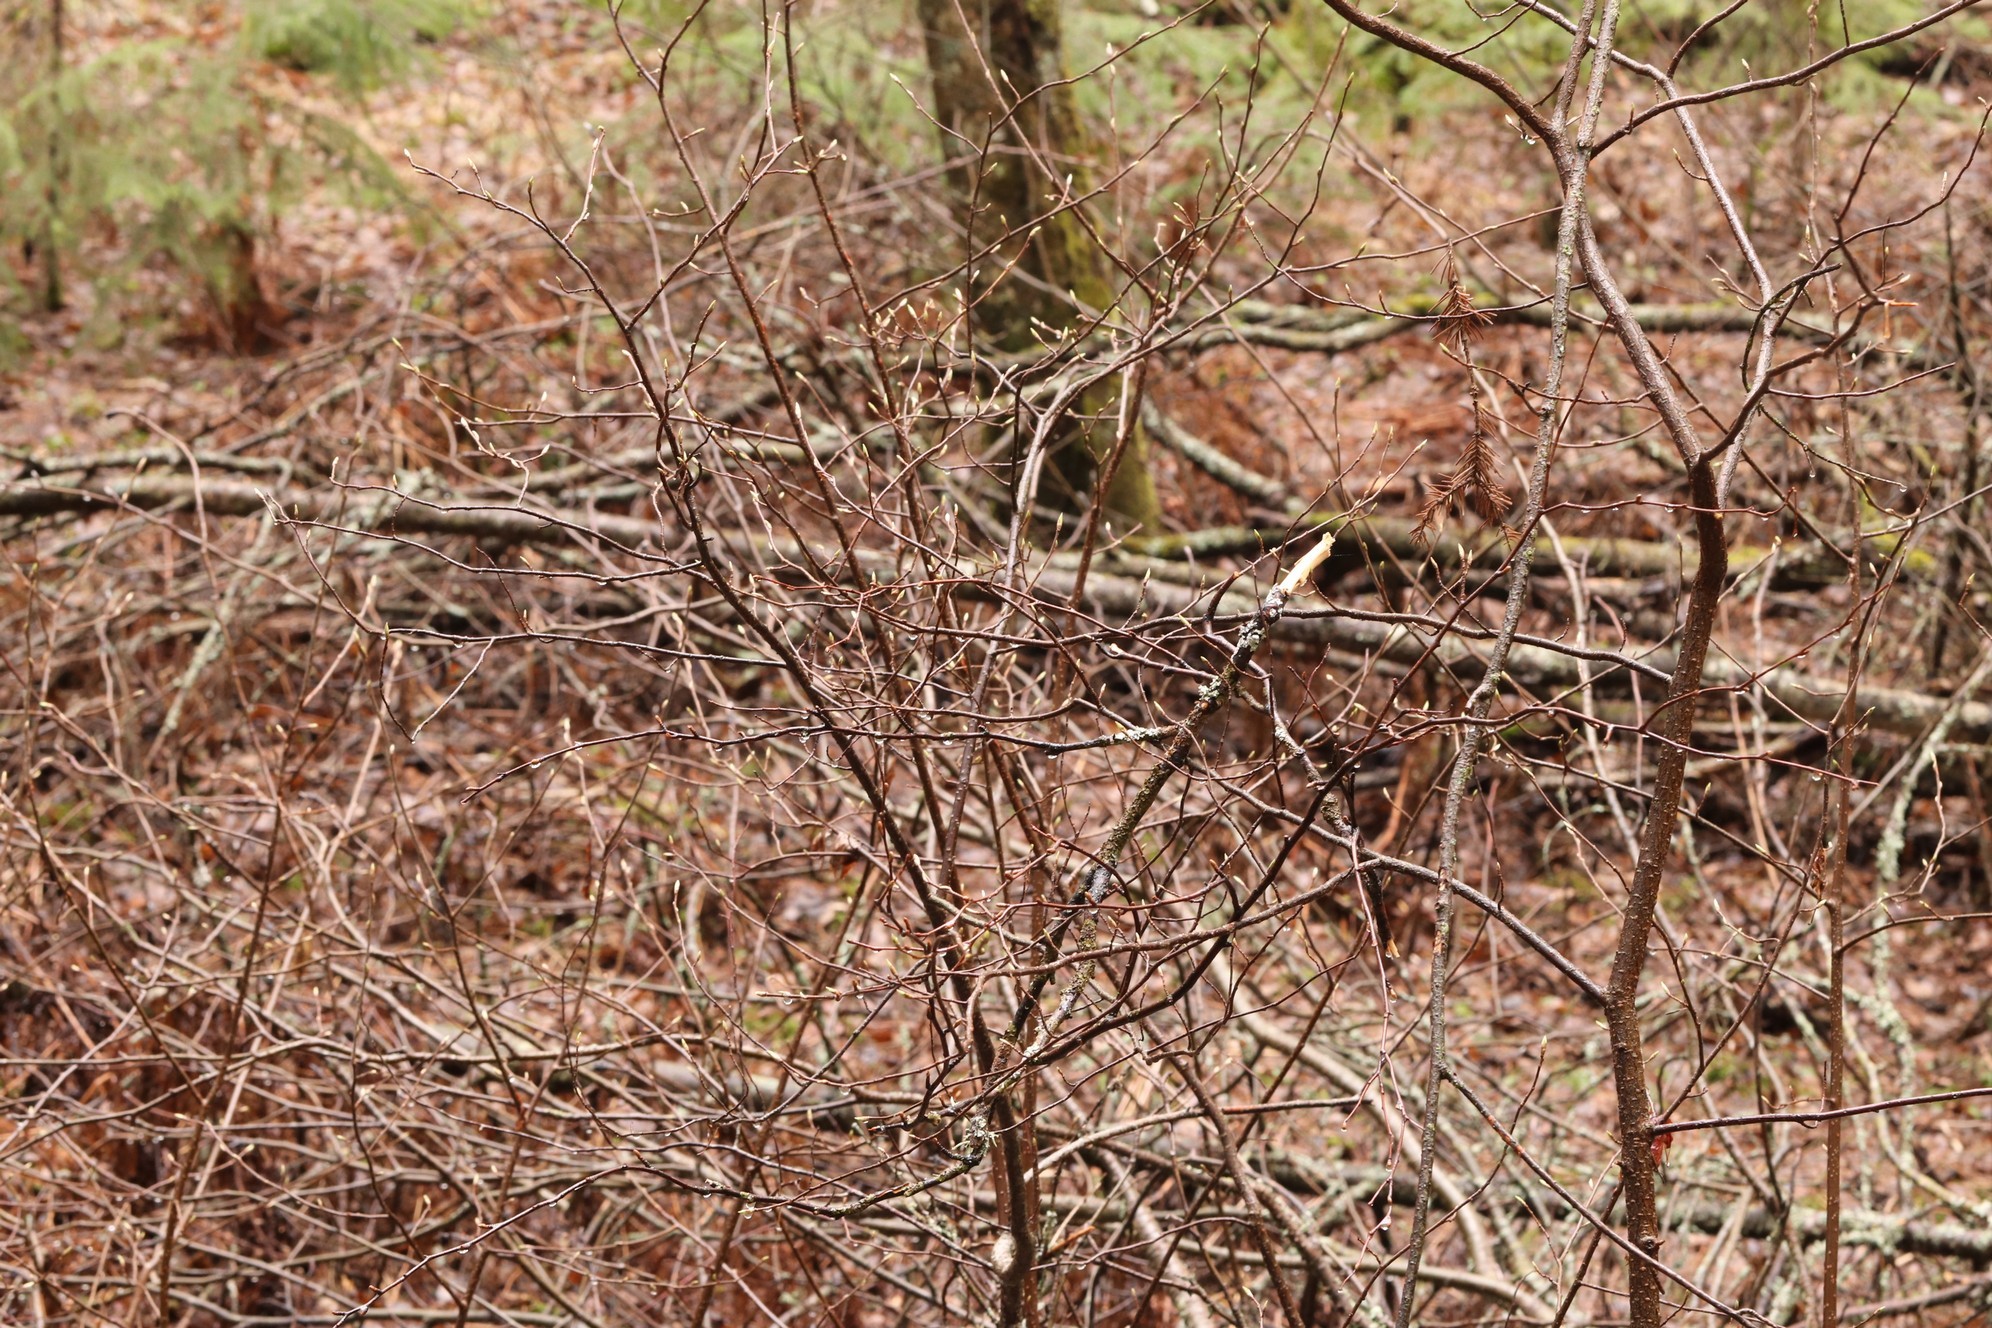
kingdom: Plantae
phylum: Tracheophyta
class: Magnoliopsida
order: Rosales
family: Rosaceae
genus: Prunus
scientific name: Prunus padus
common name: Bird cherry
